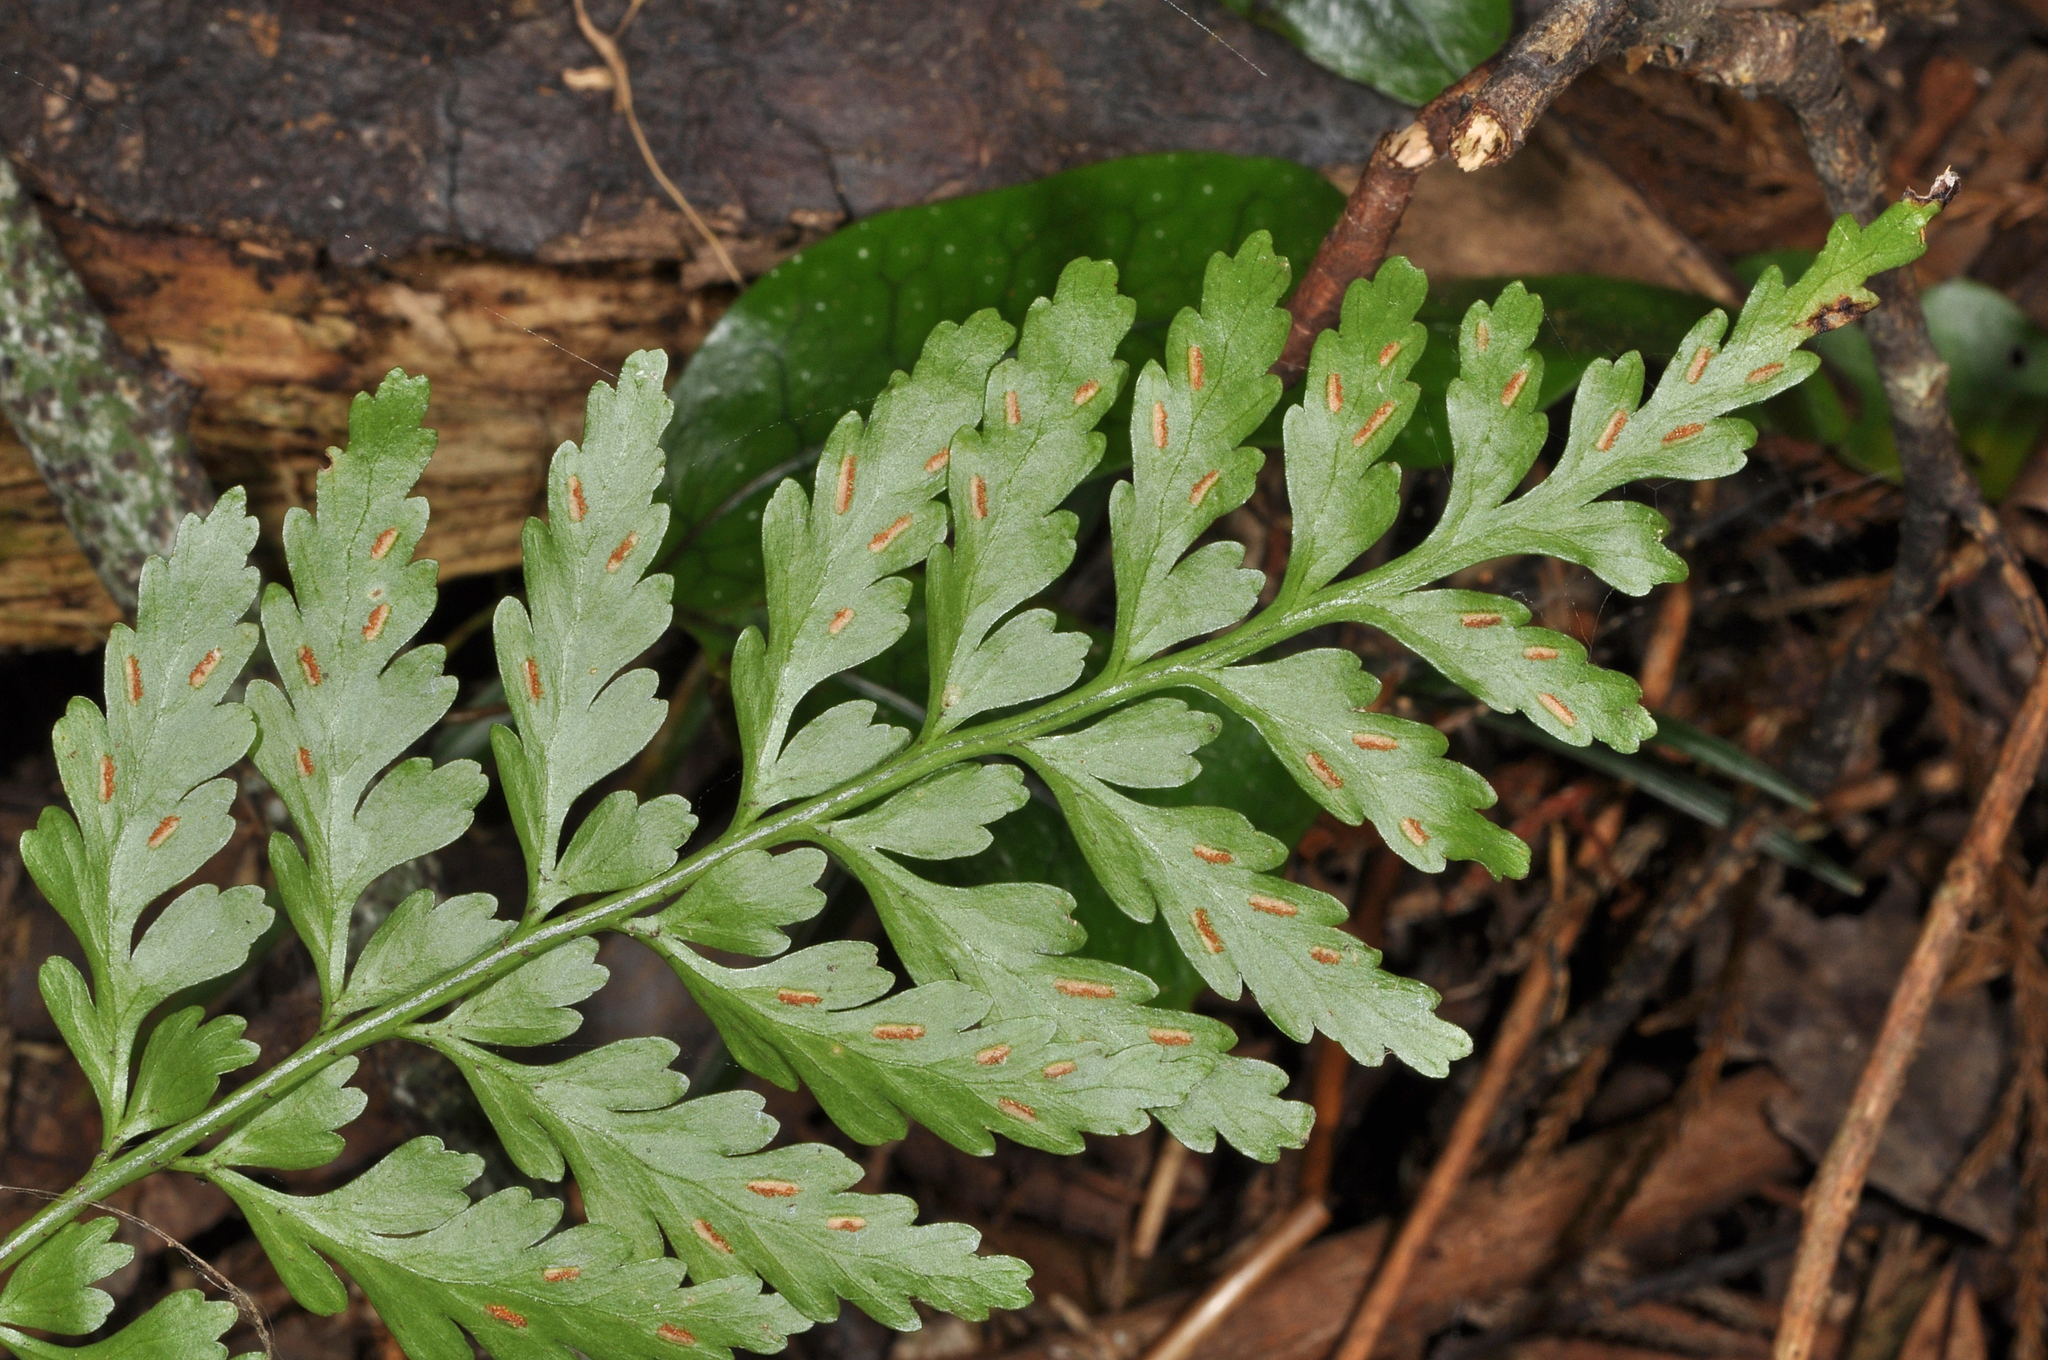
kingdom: Plantae
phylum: Tracheophyta
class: Polypodiopsida
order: Polypodiales
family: Aspleniaceae
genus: Asplenium
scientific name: Asplenium lamprophyllum
